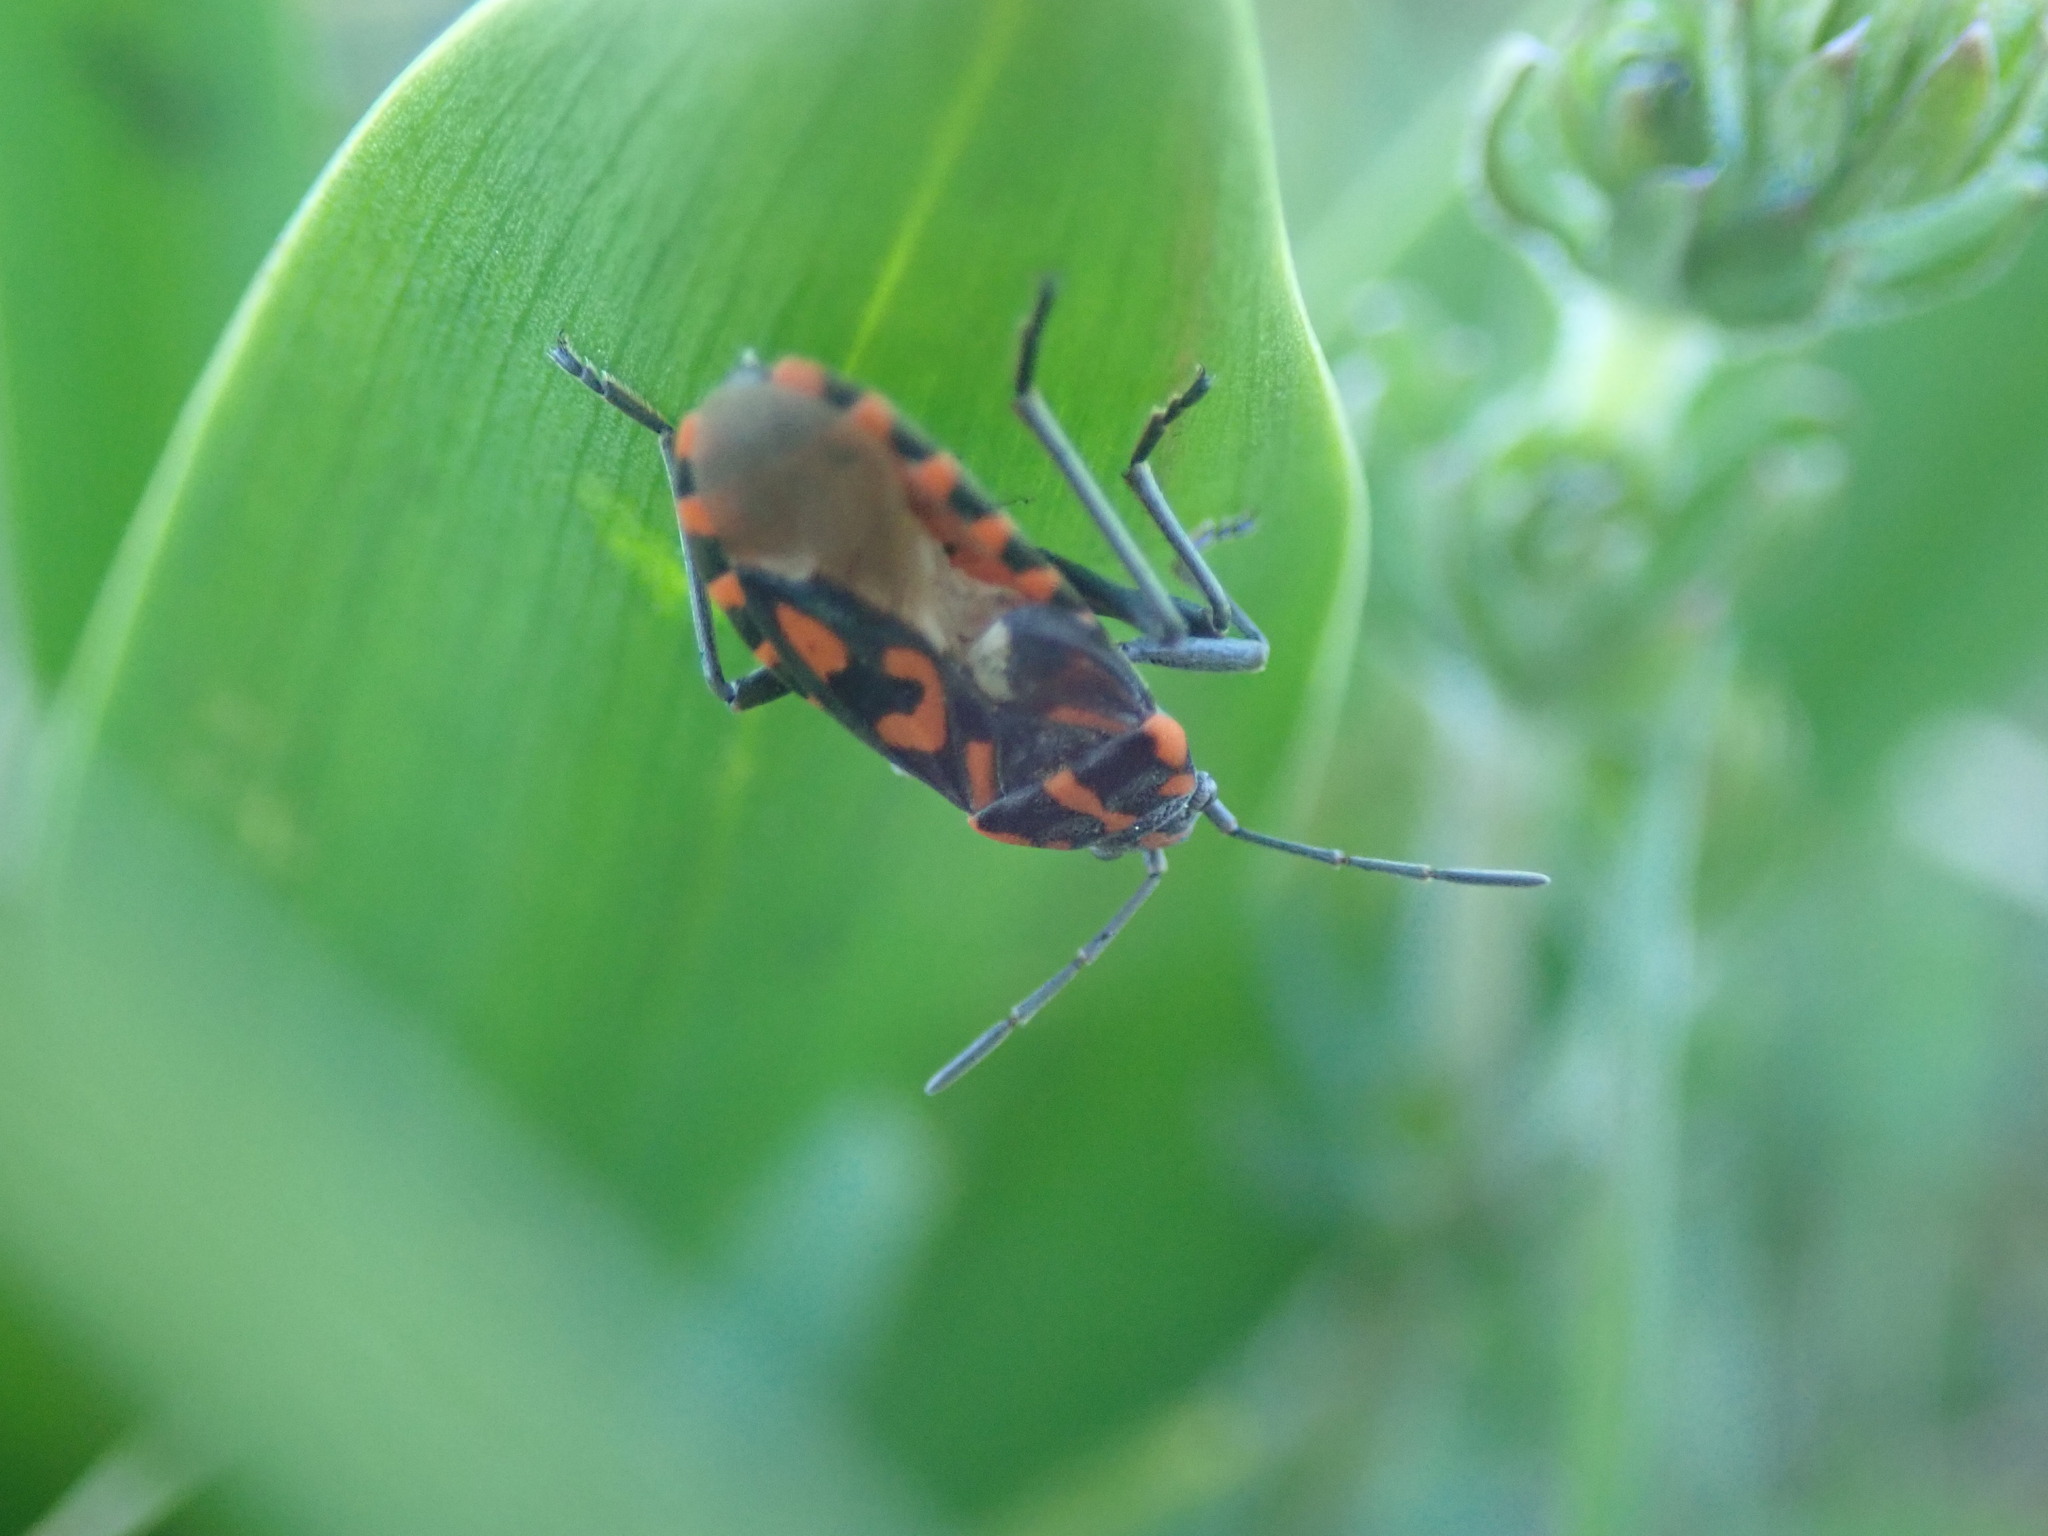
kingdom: Animalia
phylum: Arthropoda
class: Insecta
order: Hemiptera
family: Lygaeidae
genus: Spilostethus
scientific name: Spilostethus saxatilis
